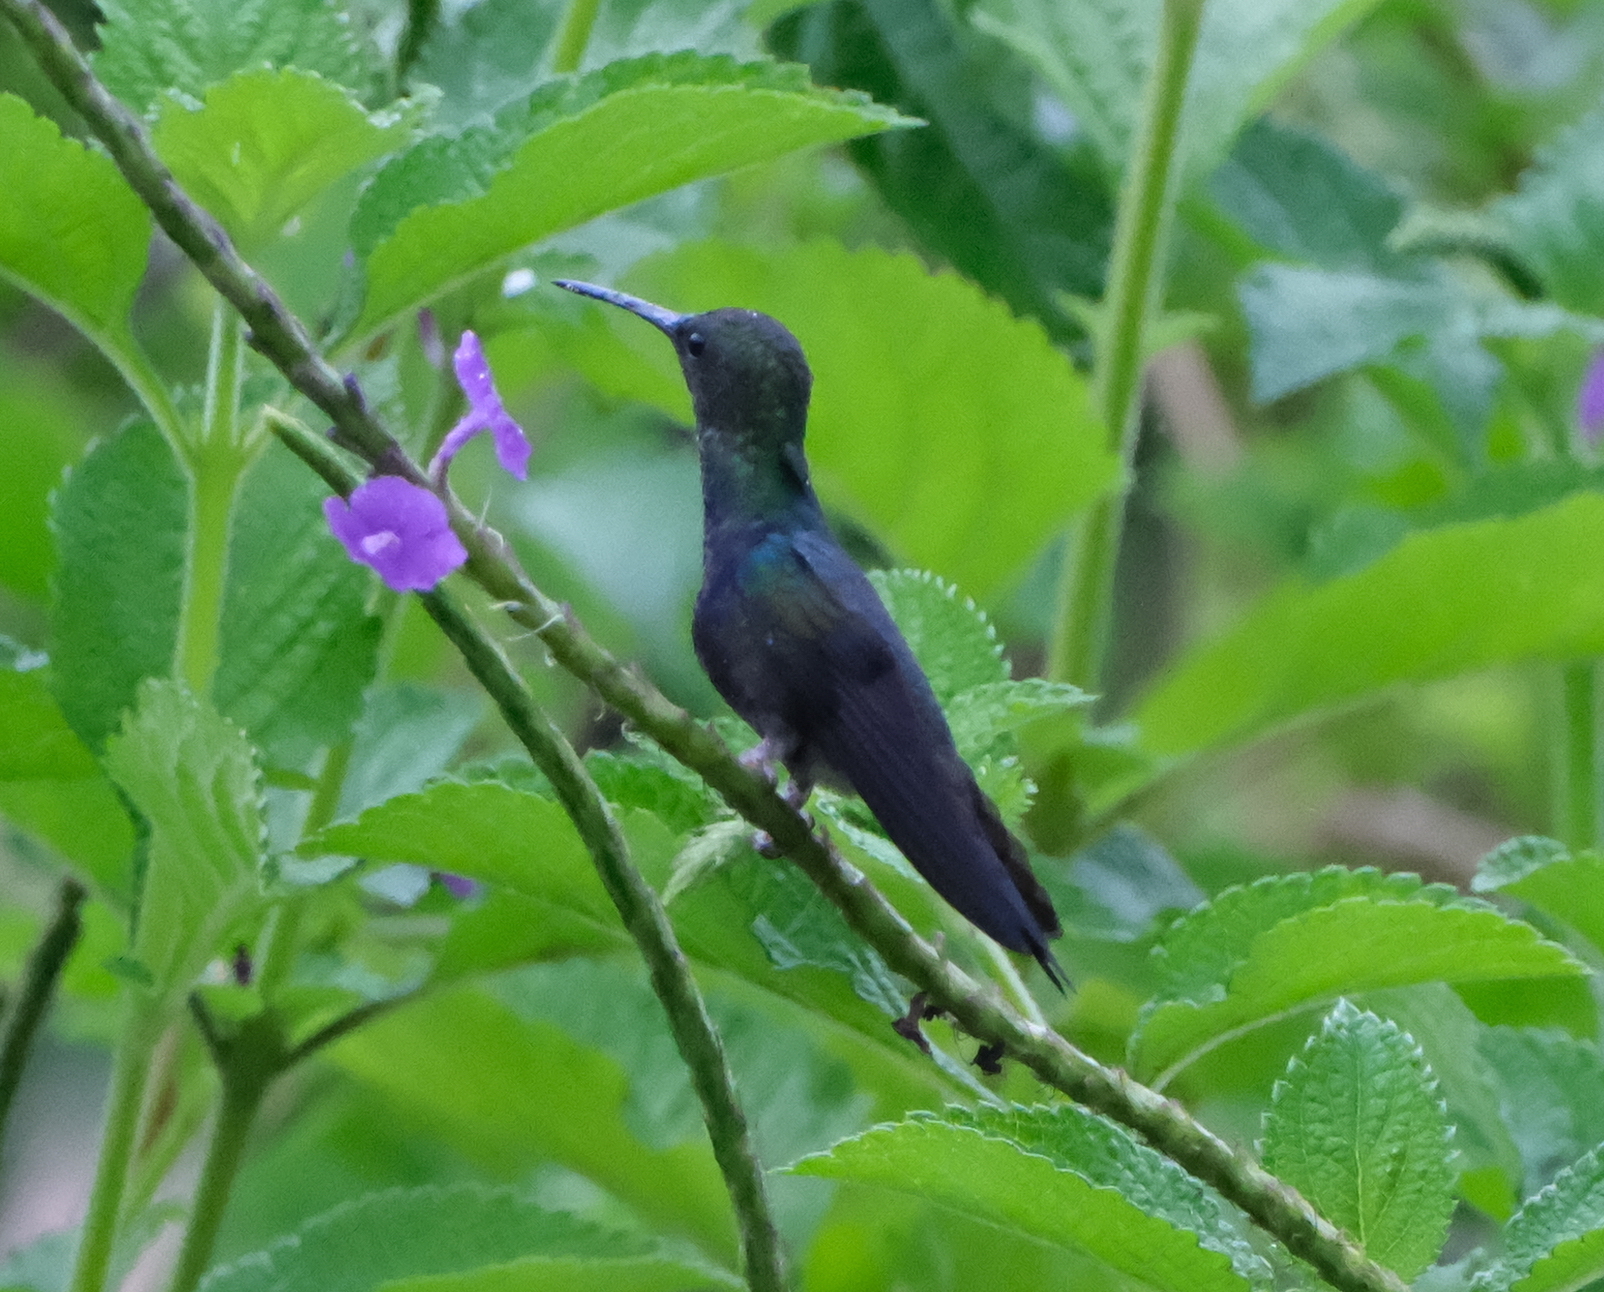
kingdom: Animalia
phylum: Chordata
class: Aves
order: Apodiformes
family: Trochilidae
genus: Thalurania
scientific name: Thalurania furcata
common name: Fork-tailed woodnymph
